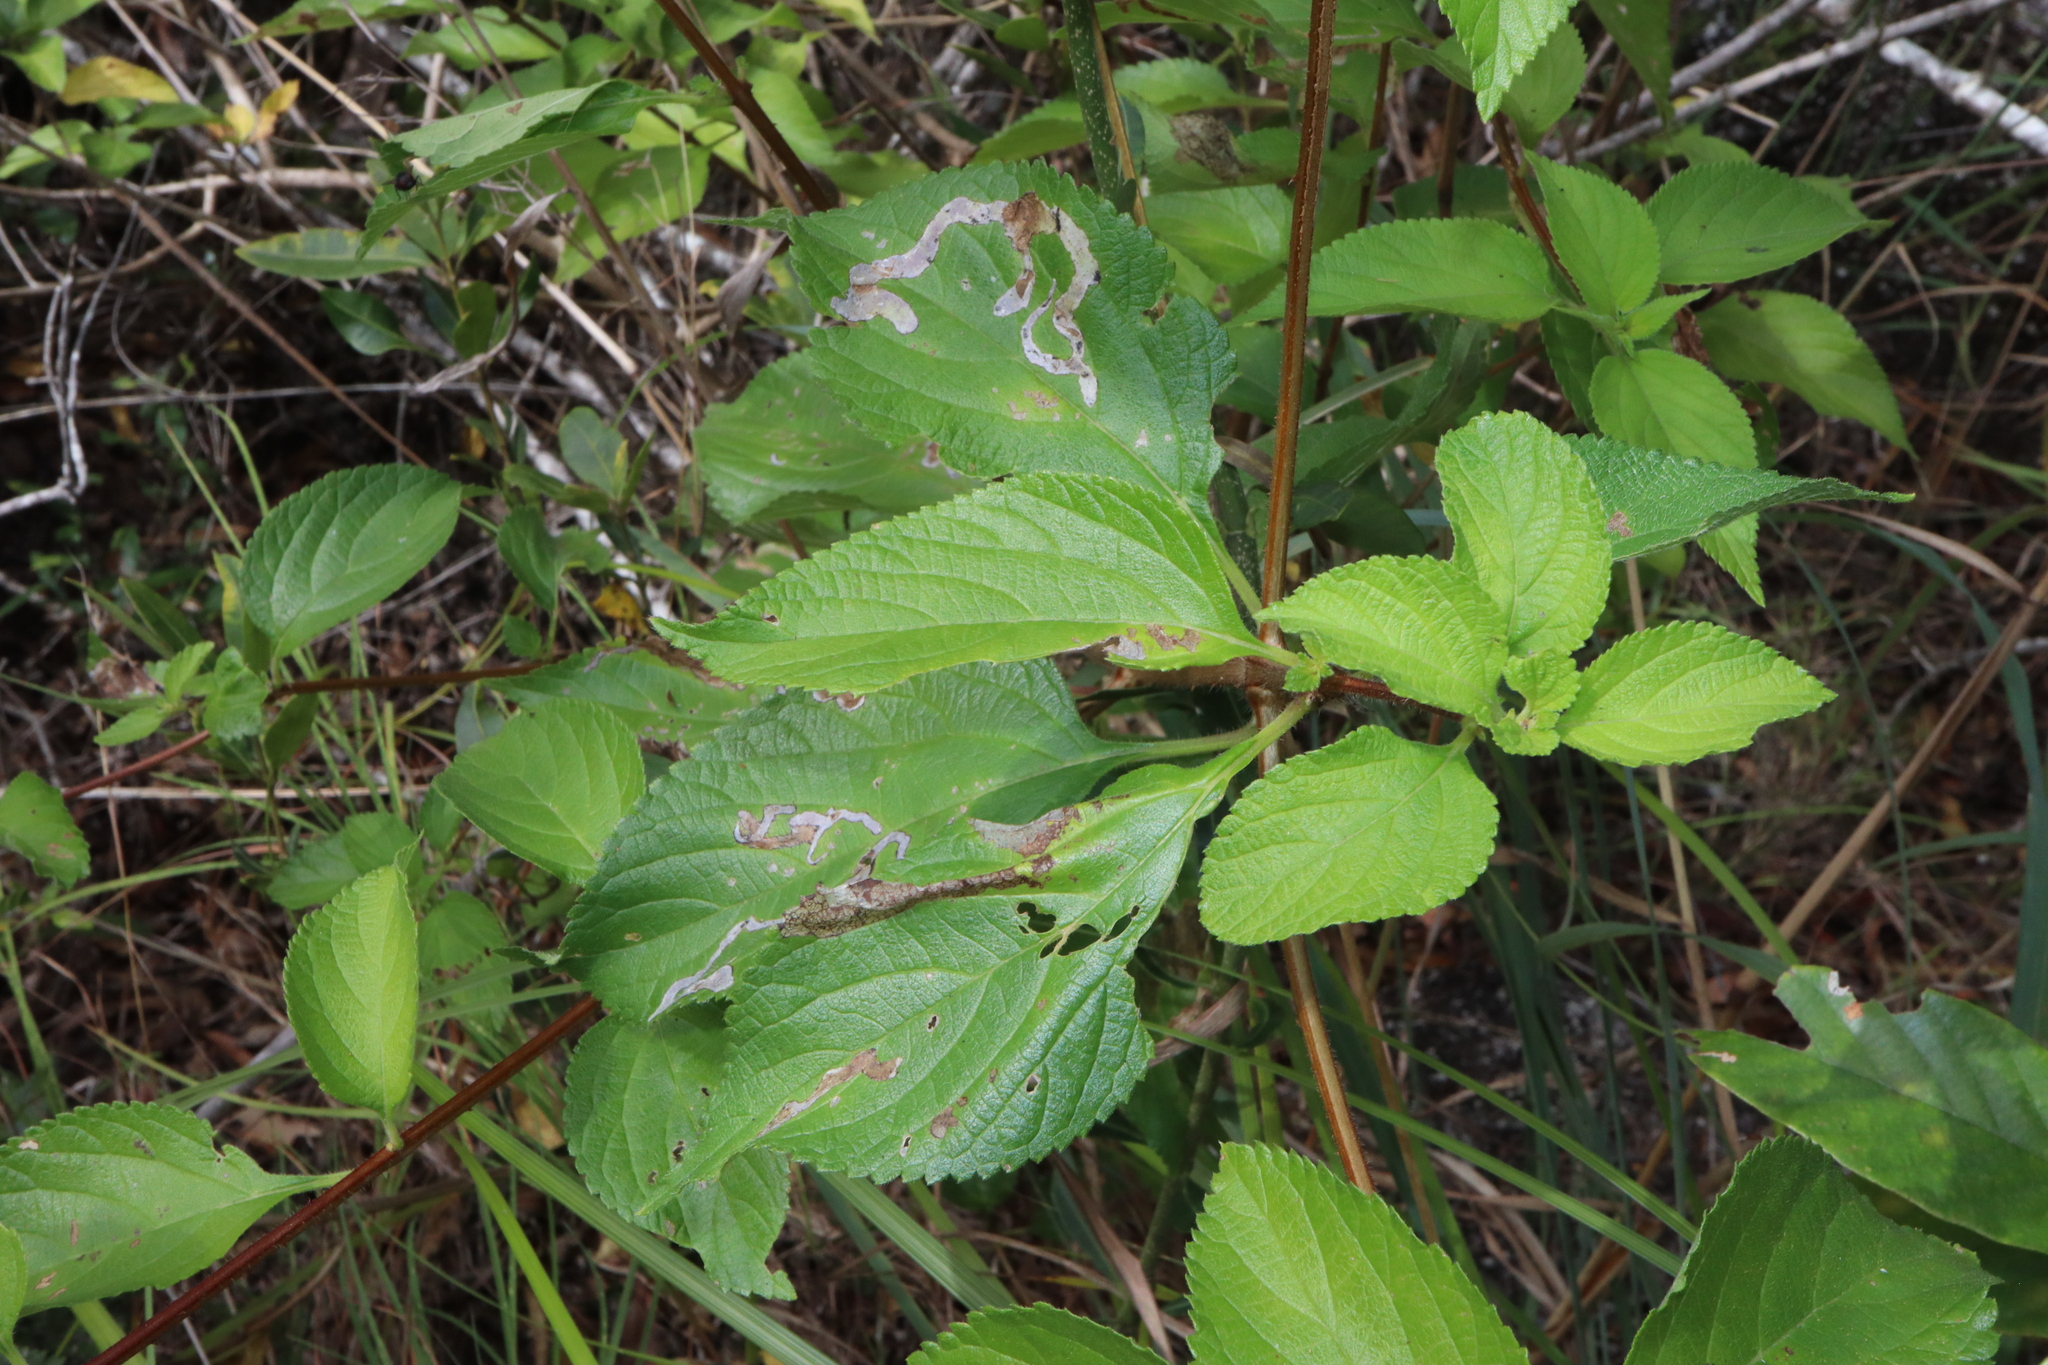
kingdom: Plantae
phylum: Tracheophyta
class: Magnoliopsida
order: Lamiales
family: Verbenaceae
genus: Lantana
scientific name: Lantana camara
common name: Lantana
